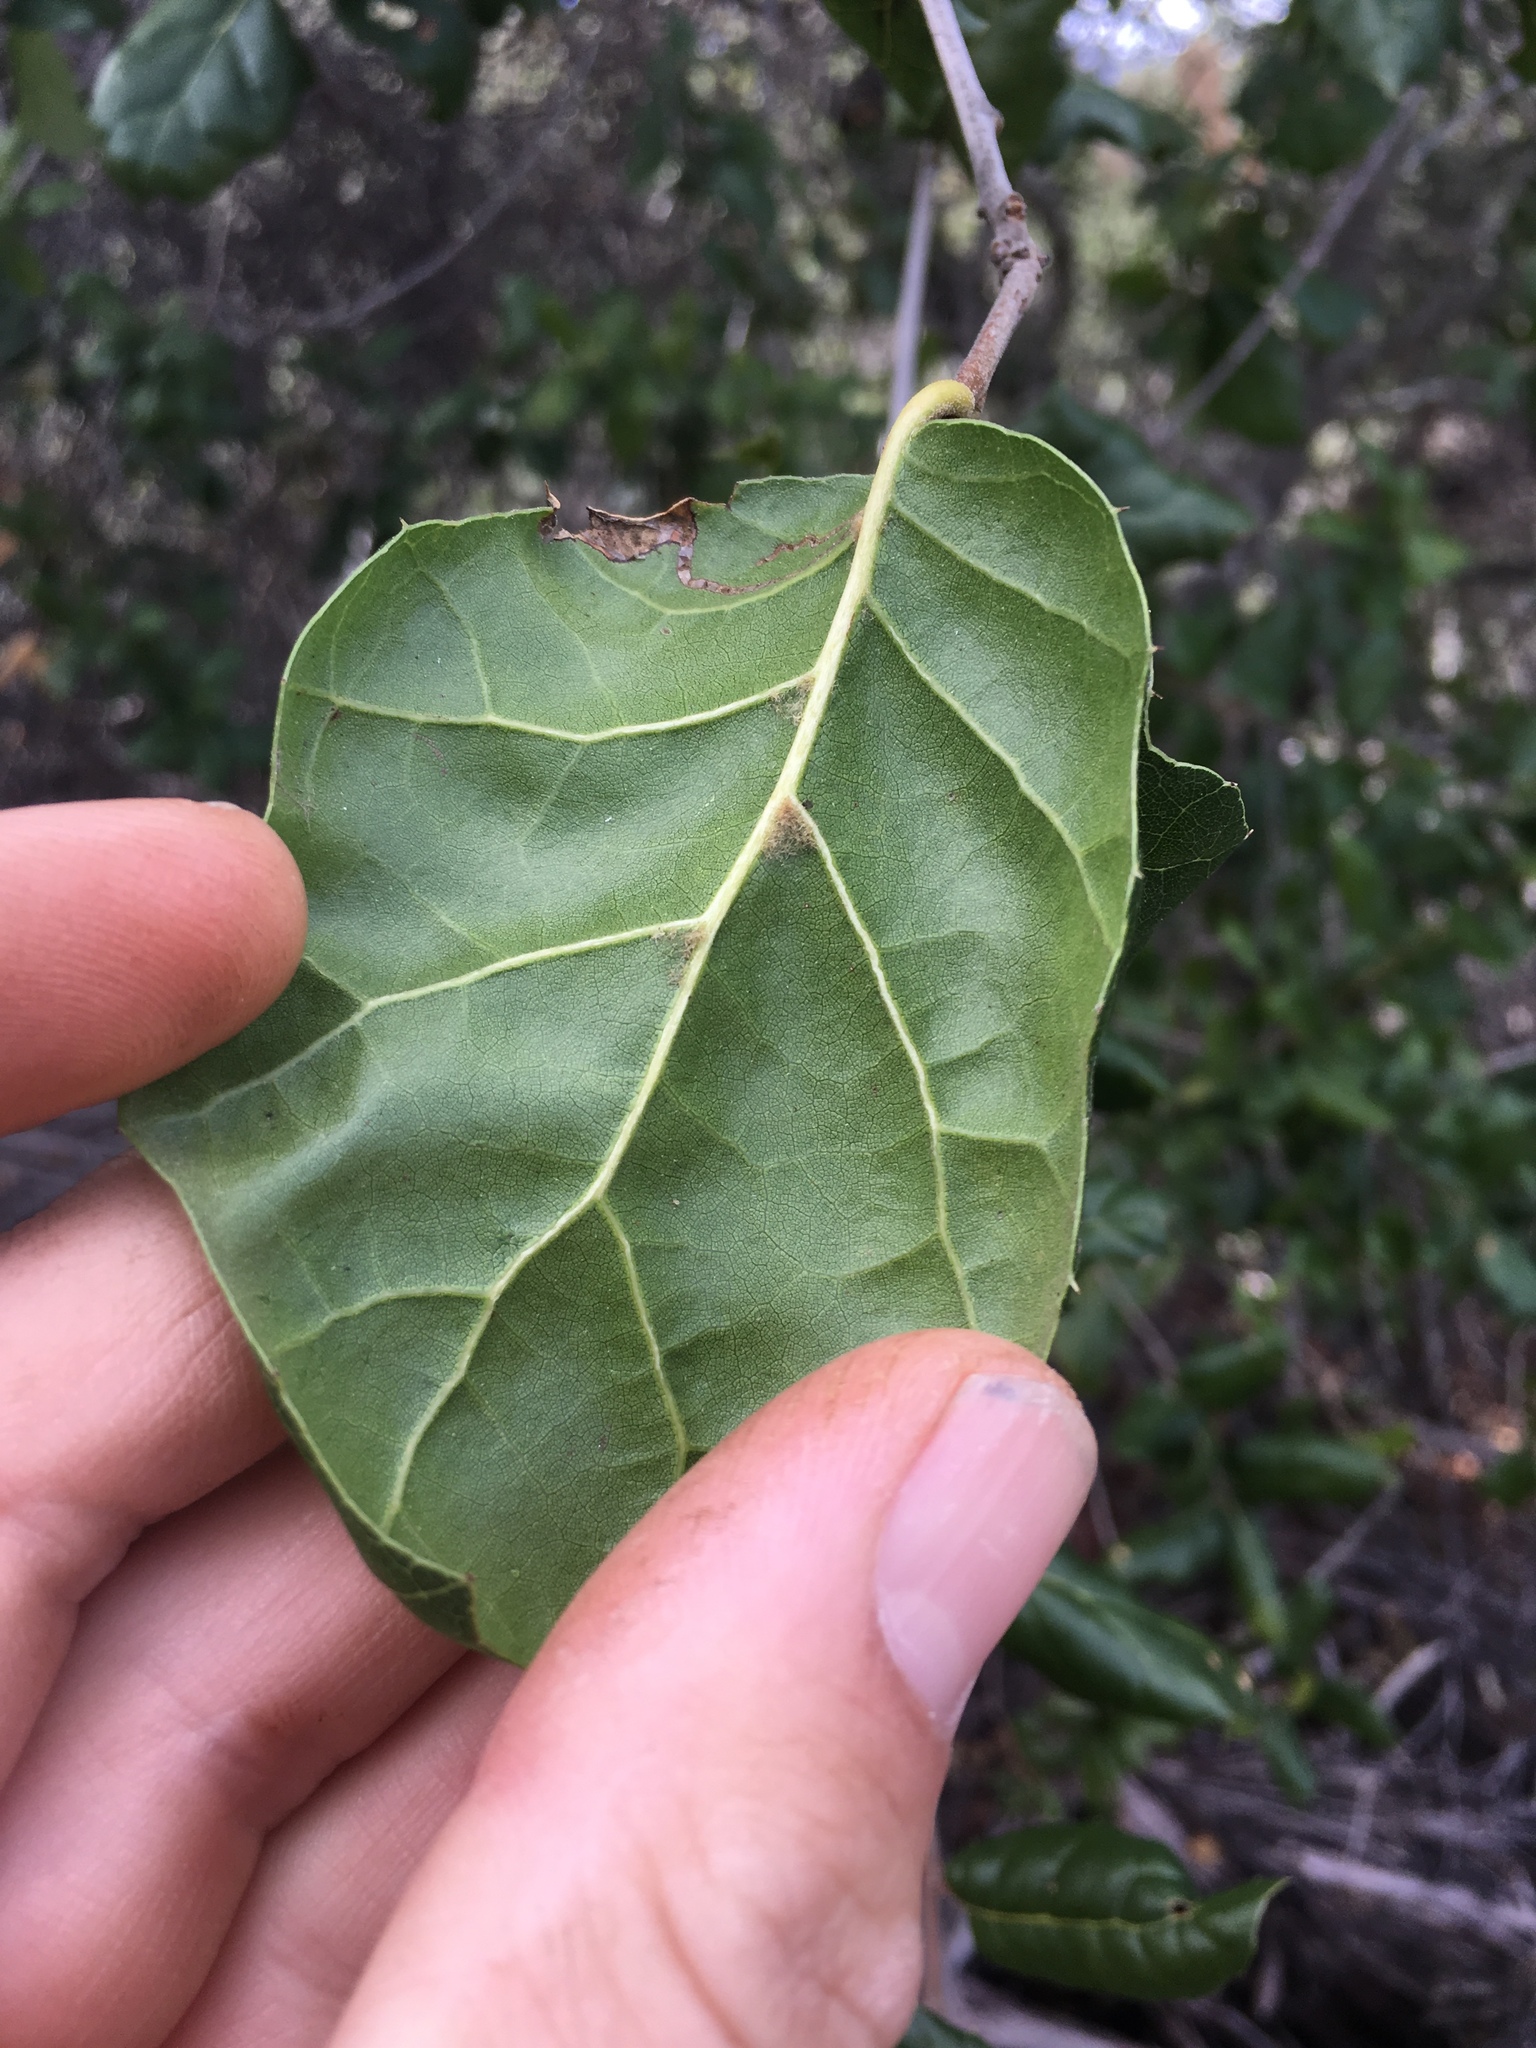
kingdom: Plantae
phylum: Tracheophyta
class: Magnoliopsida
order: Fagales
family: Fagaceae
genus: Quercus
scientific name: Quercus agrifolia
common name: California live oak
